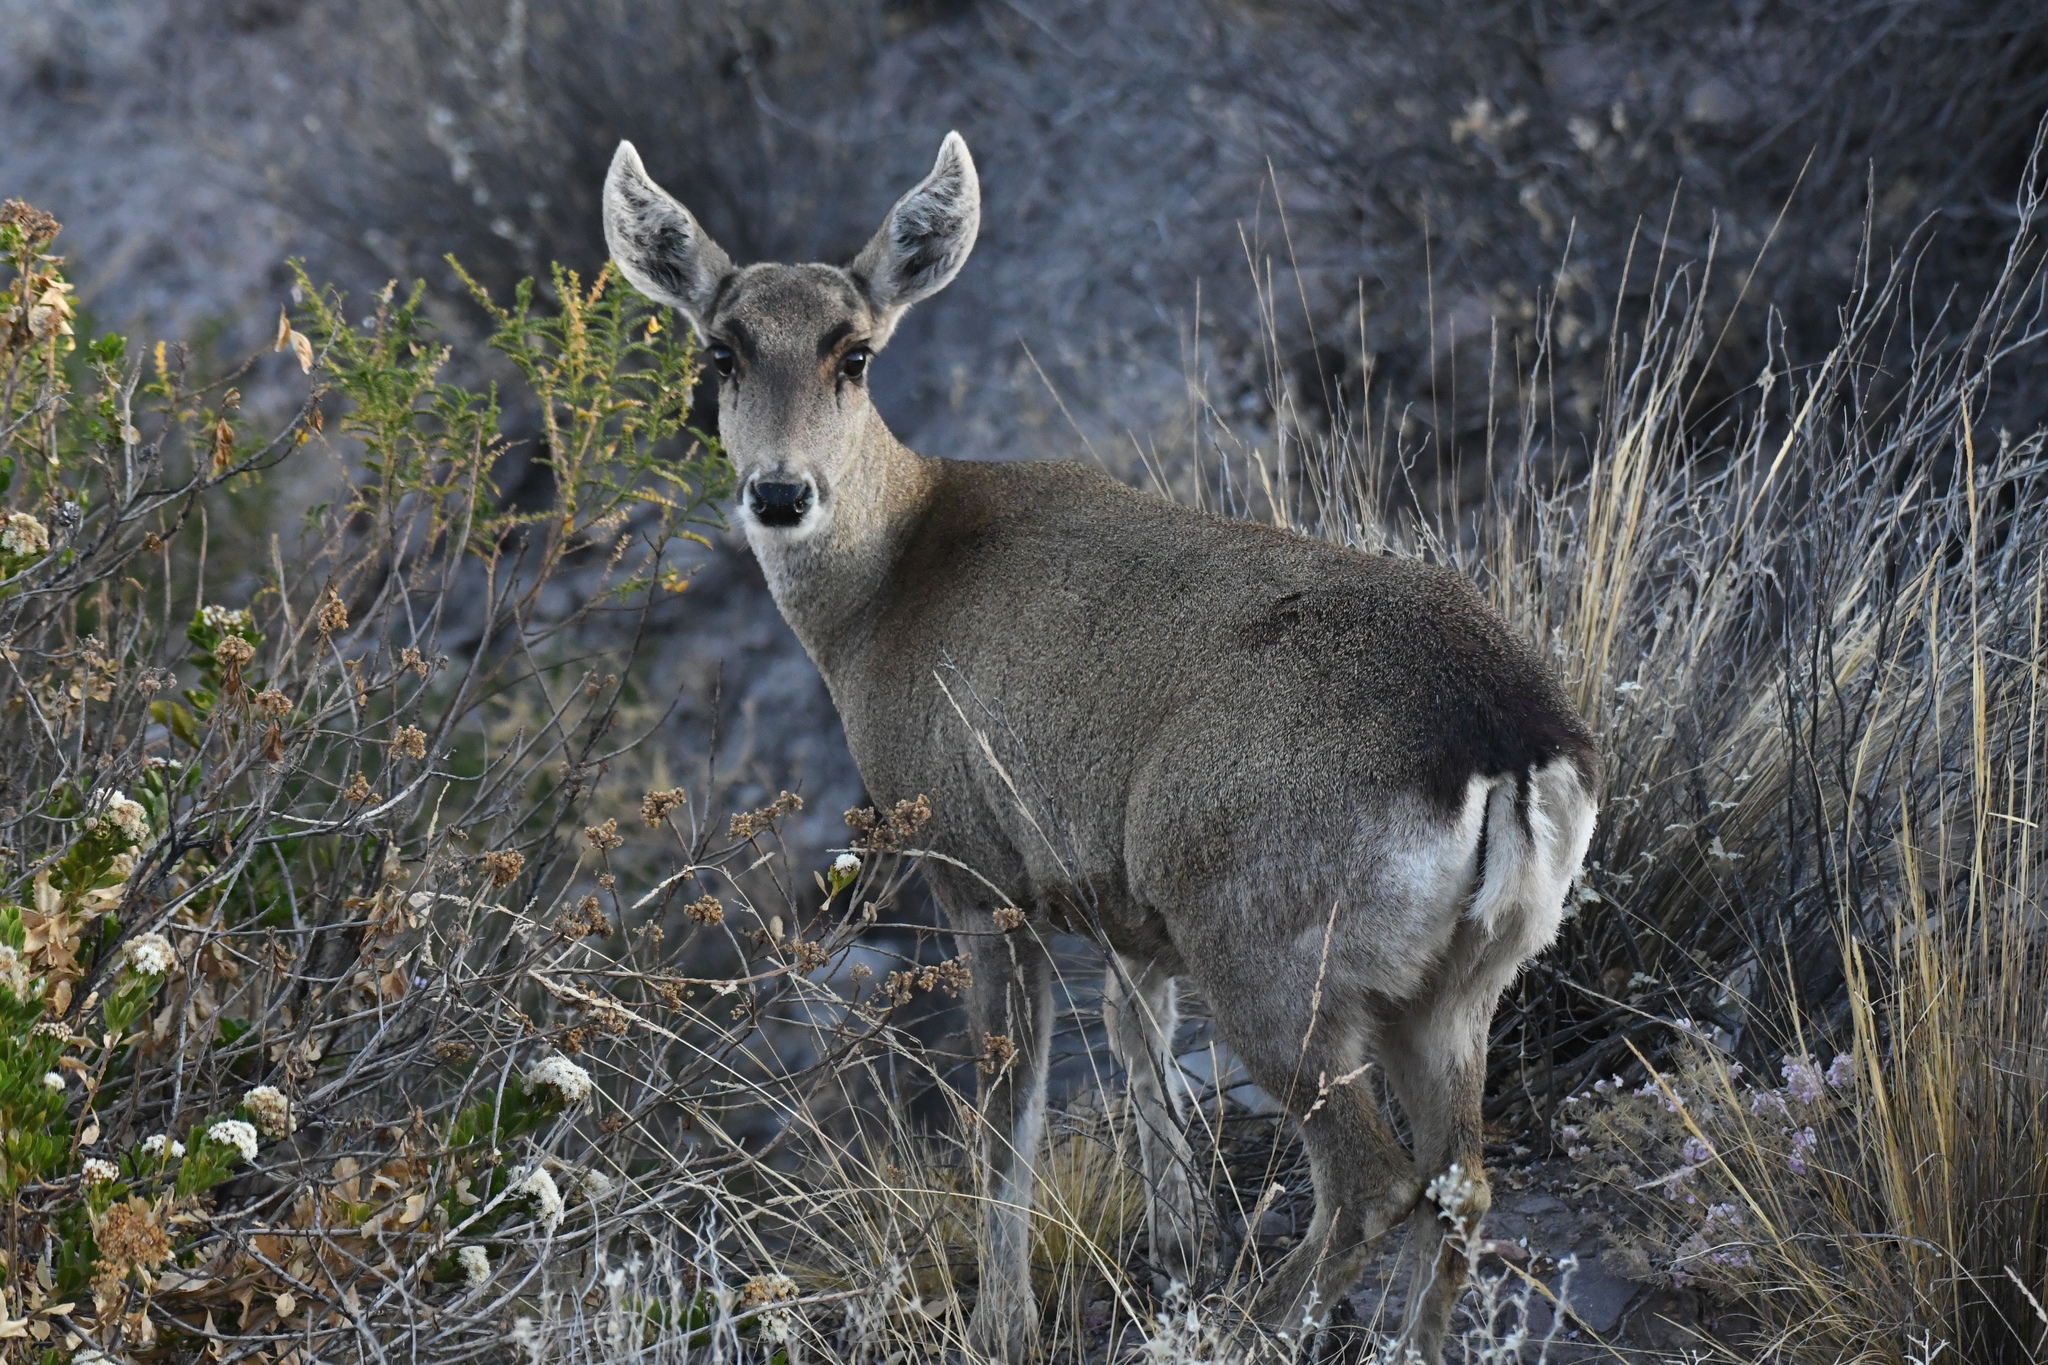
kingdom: Animalia
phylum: Chordata
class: Mammalia
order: Artiodactyla
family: Cervidae
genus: Hippocamelus
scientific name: Hippocamelus antisensis
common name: Taruca
